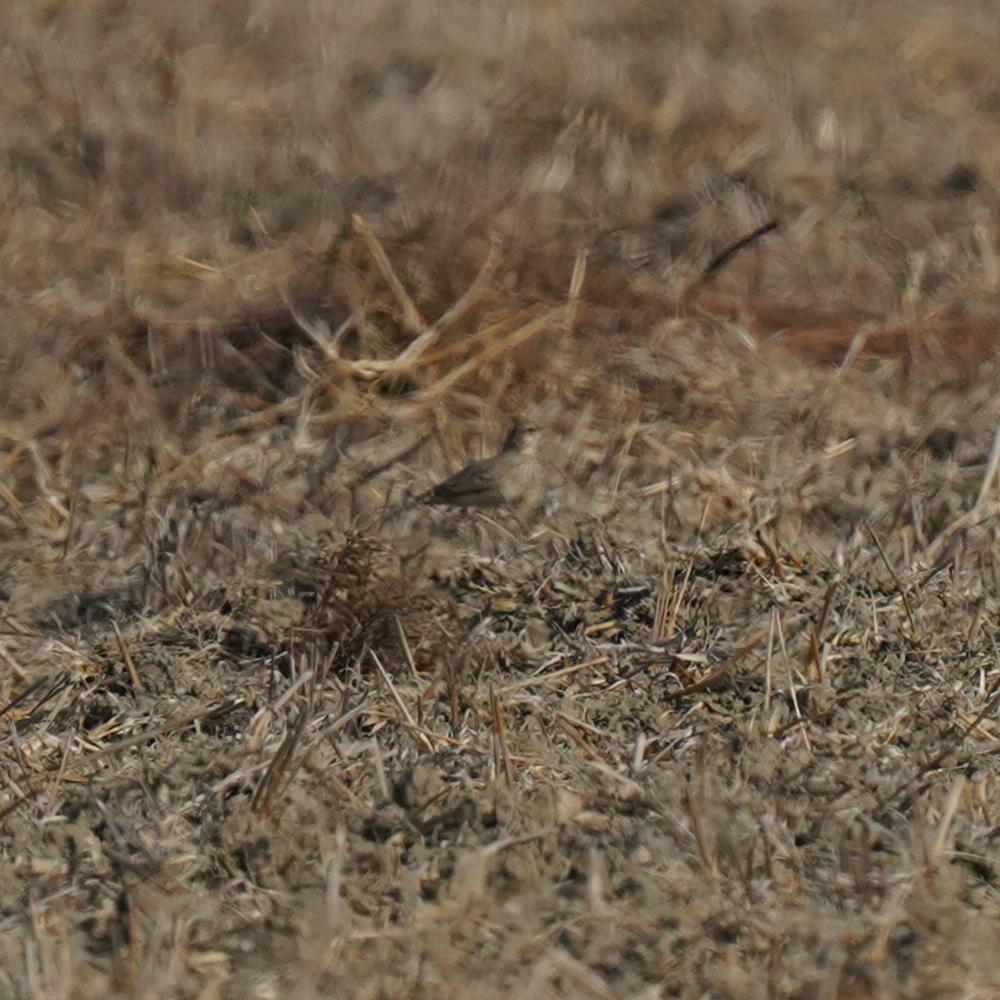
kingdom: Animalia
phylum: Chordata
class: Aves
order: Passeriformes
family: Alaudidae
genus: Galerida
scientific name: Galerida cristata
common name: Crested lark
